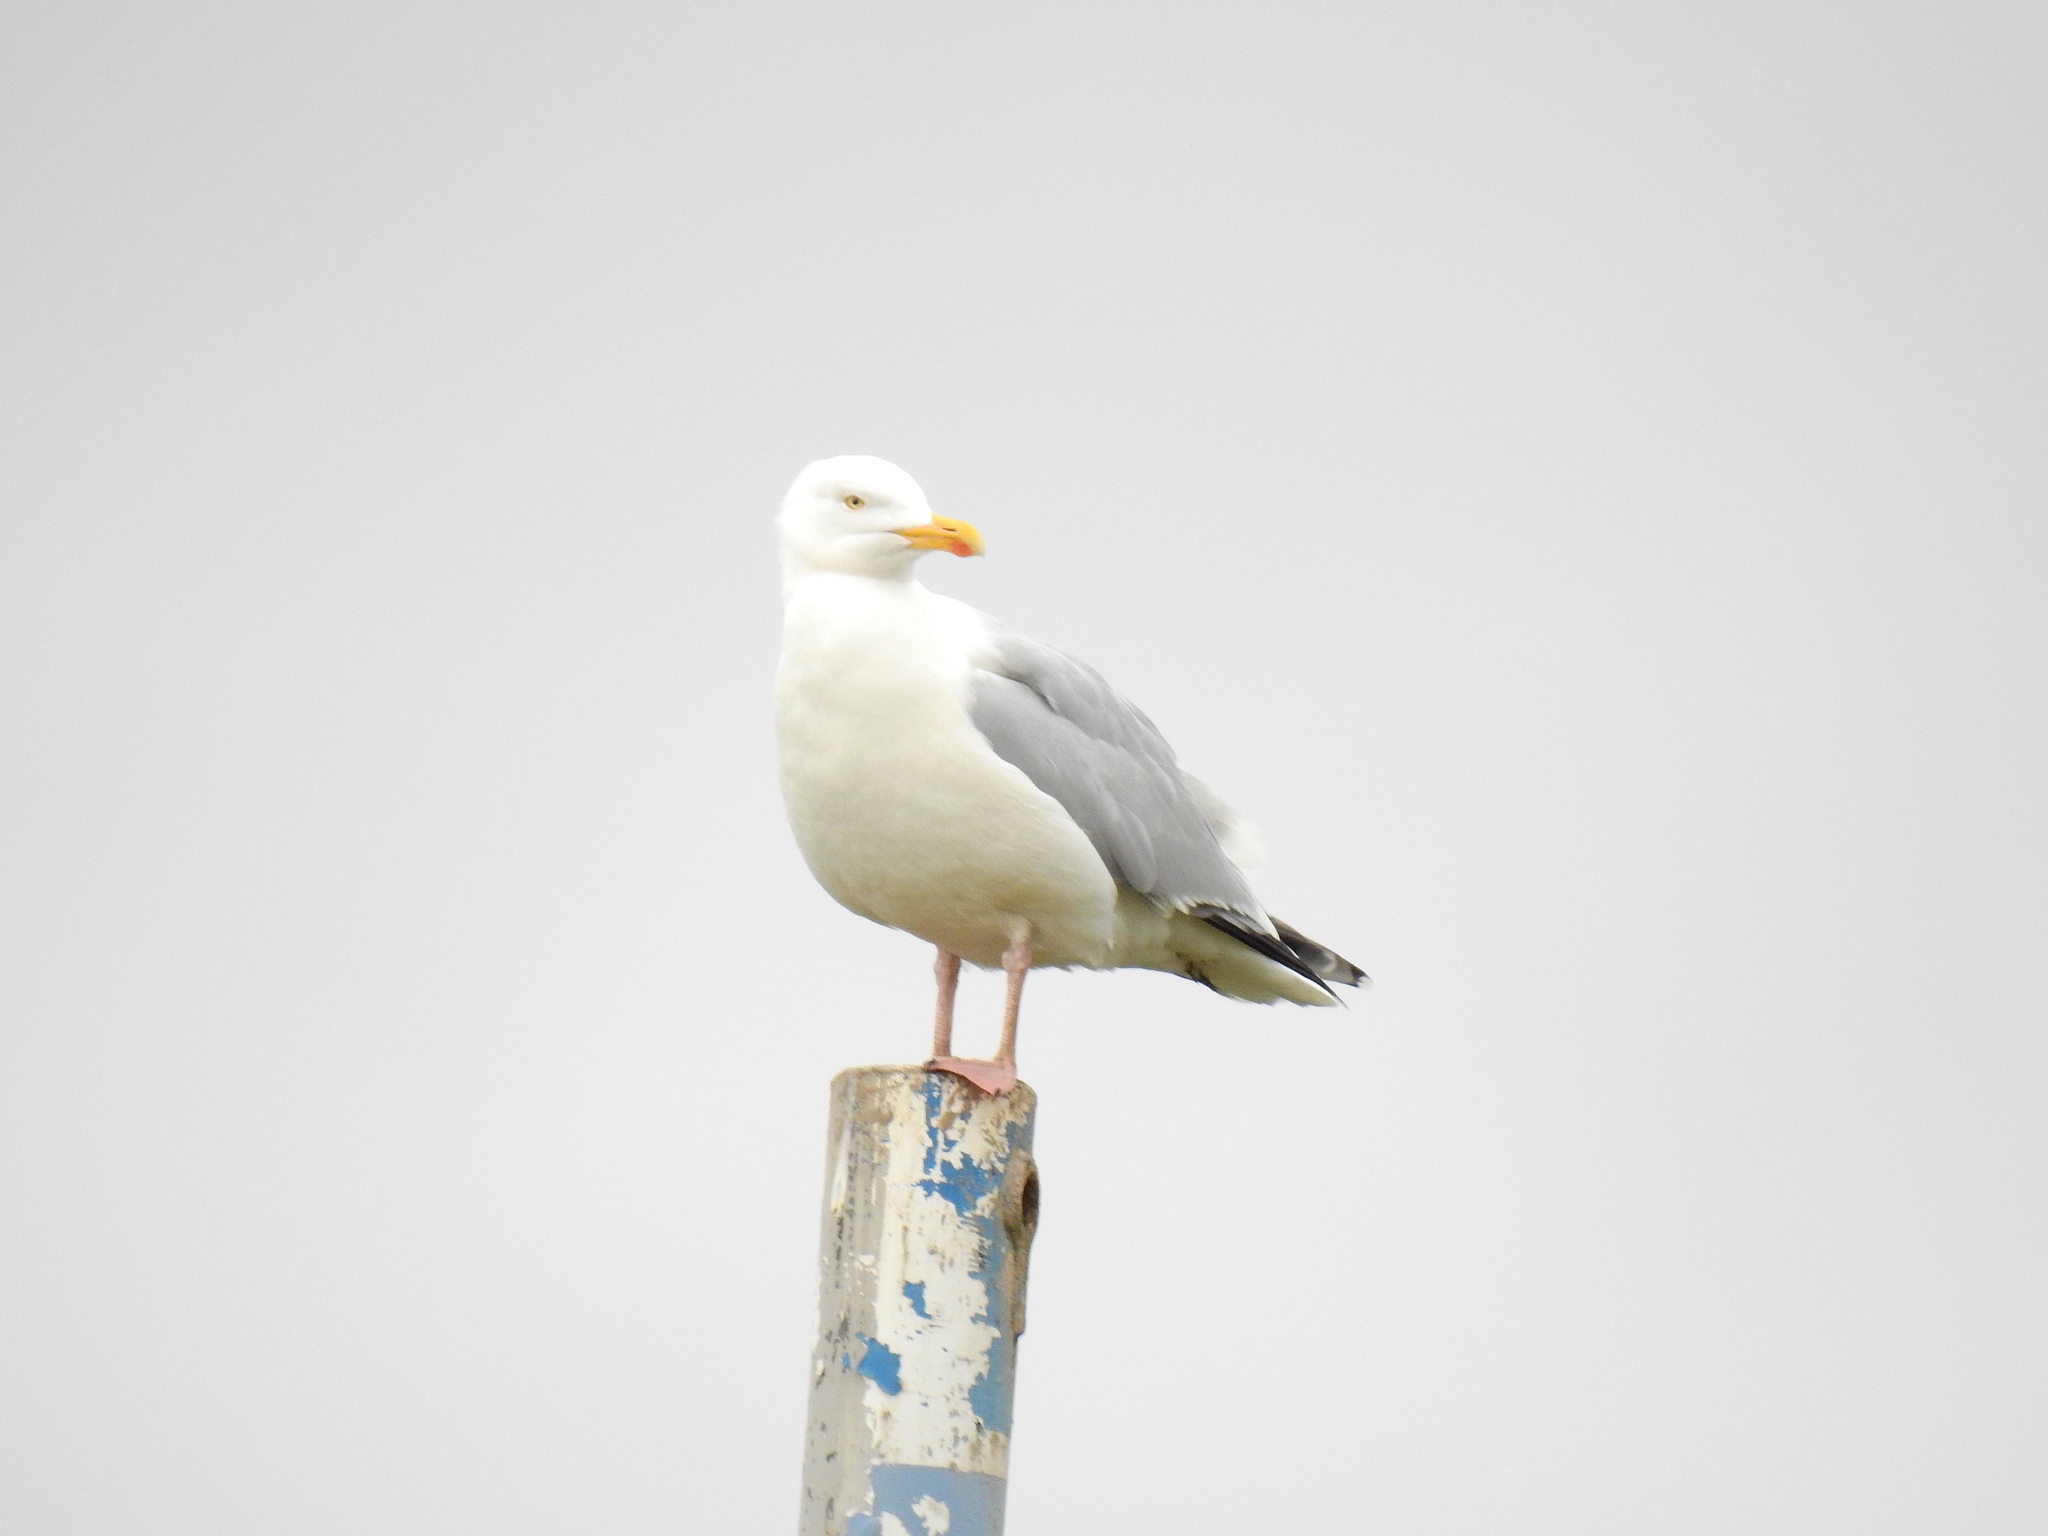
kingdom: Animalia
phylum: Chordata
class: Aves
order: Charadriiformes
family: Laridae
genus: Larus
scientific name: Larus argentatus
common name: Herring gull
